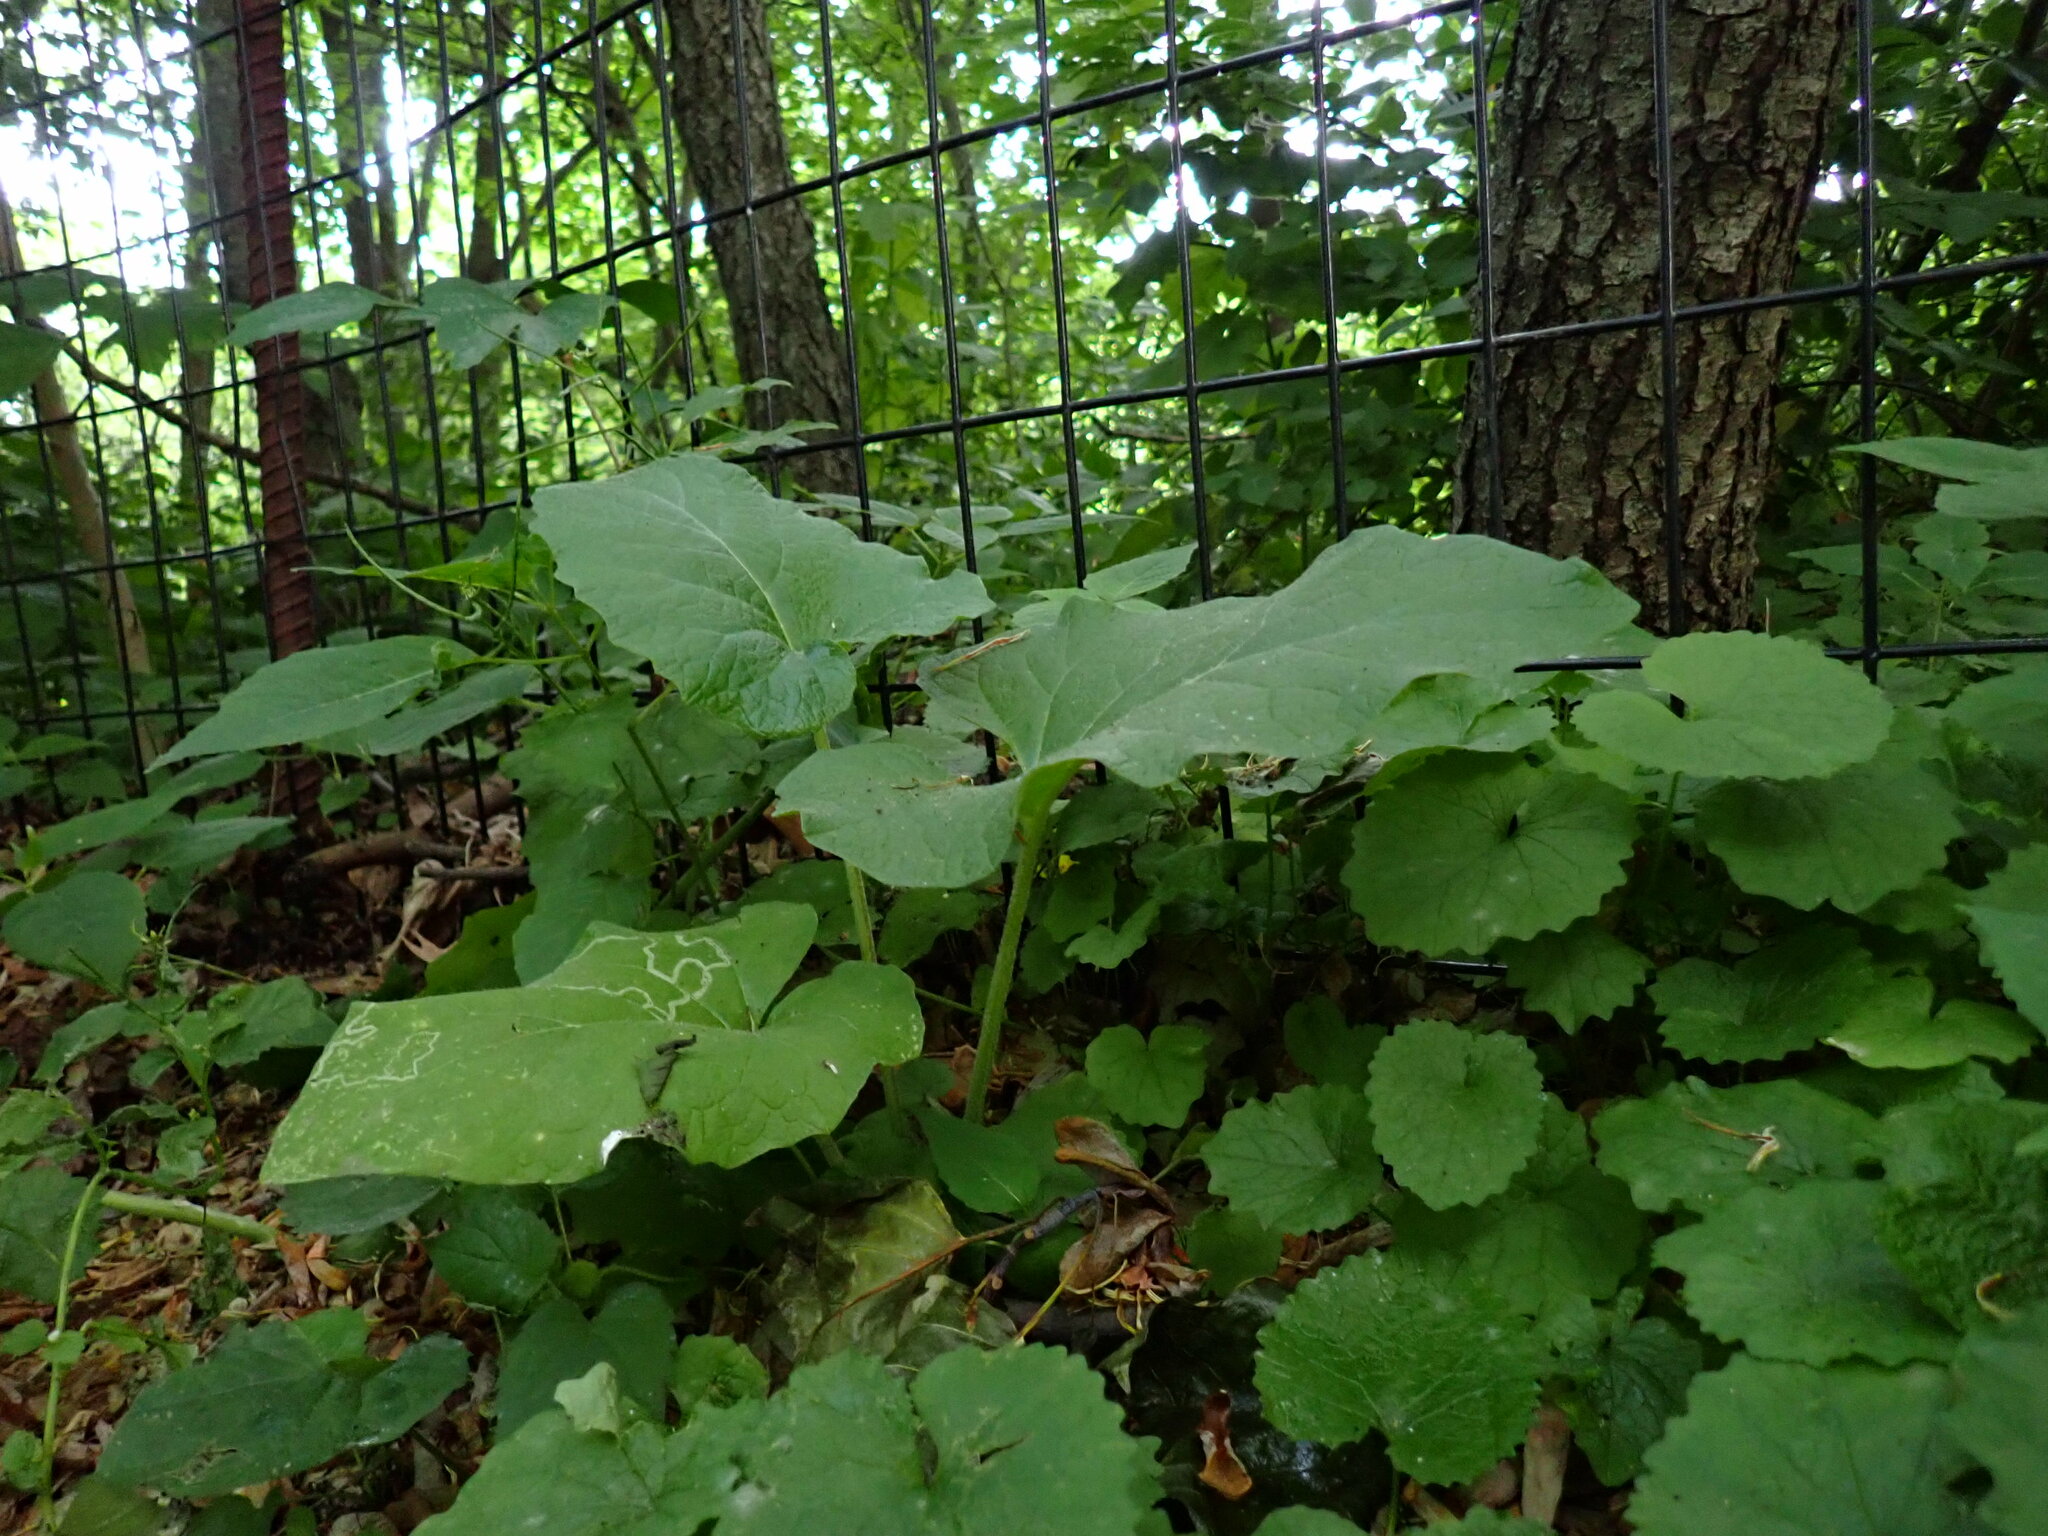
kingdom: Plantae
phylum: Tracheophyta
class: Magnoliopsida
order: Asterales
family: Asteraceae
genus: Arctium
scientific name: Arctium
